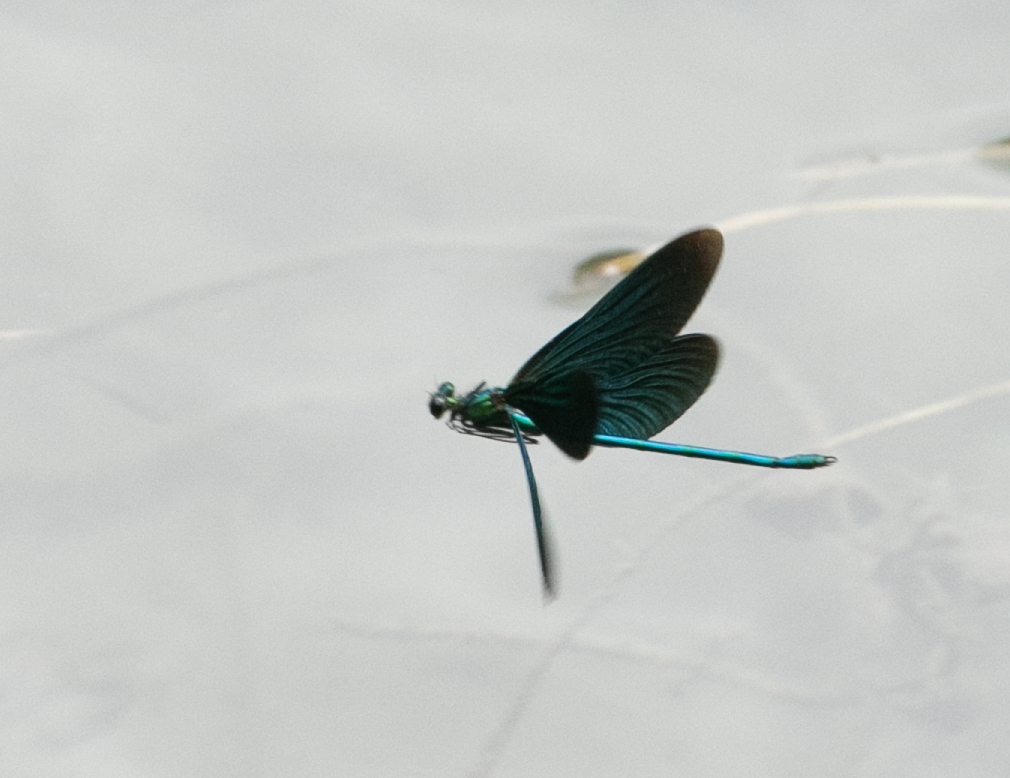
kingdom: Animalia
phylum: Arthropoda
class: Insecta
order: Odonata
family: Calopterygidae
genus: Calopteryx
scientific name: Calopteryx virgo
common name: Beautiful demoiselle
